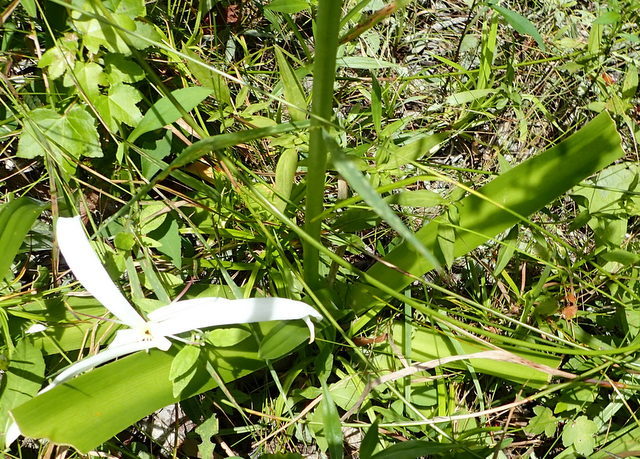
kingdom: Plantae
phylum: Tracheophyta
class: Liliopsida
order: Asparagales
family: Amaryllidaceae
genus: Crinum
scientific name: Crinum americanum
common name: Florida swamp-lily
